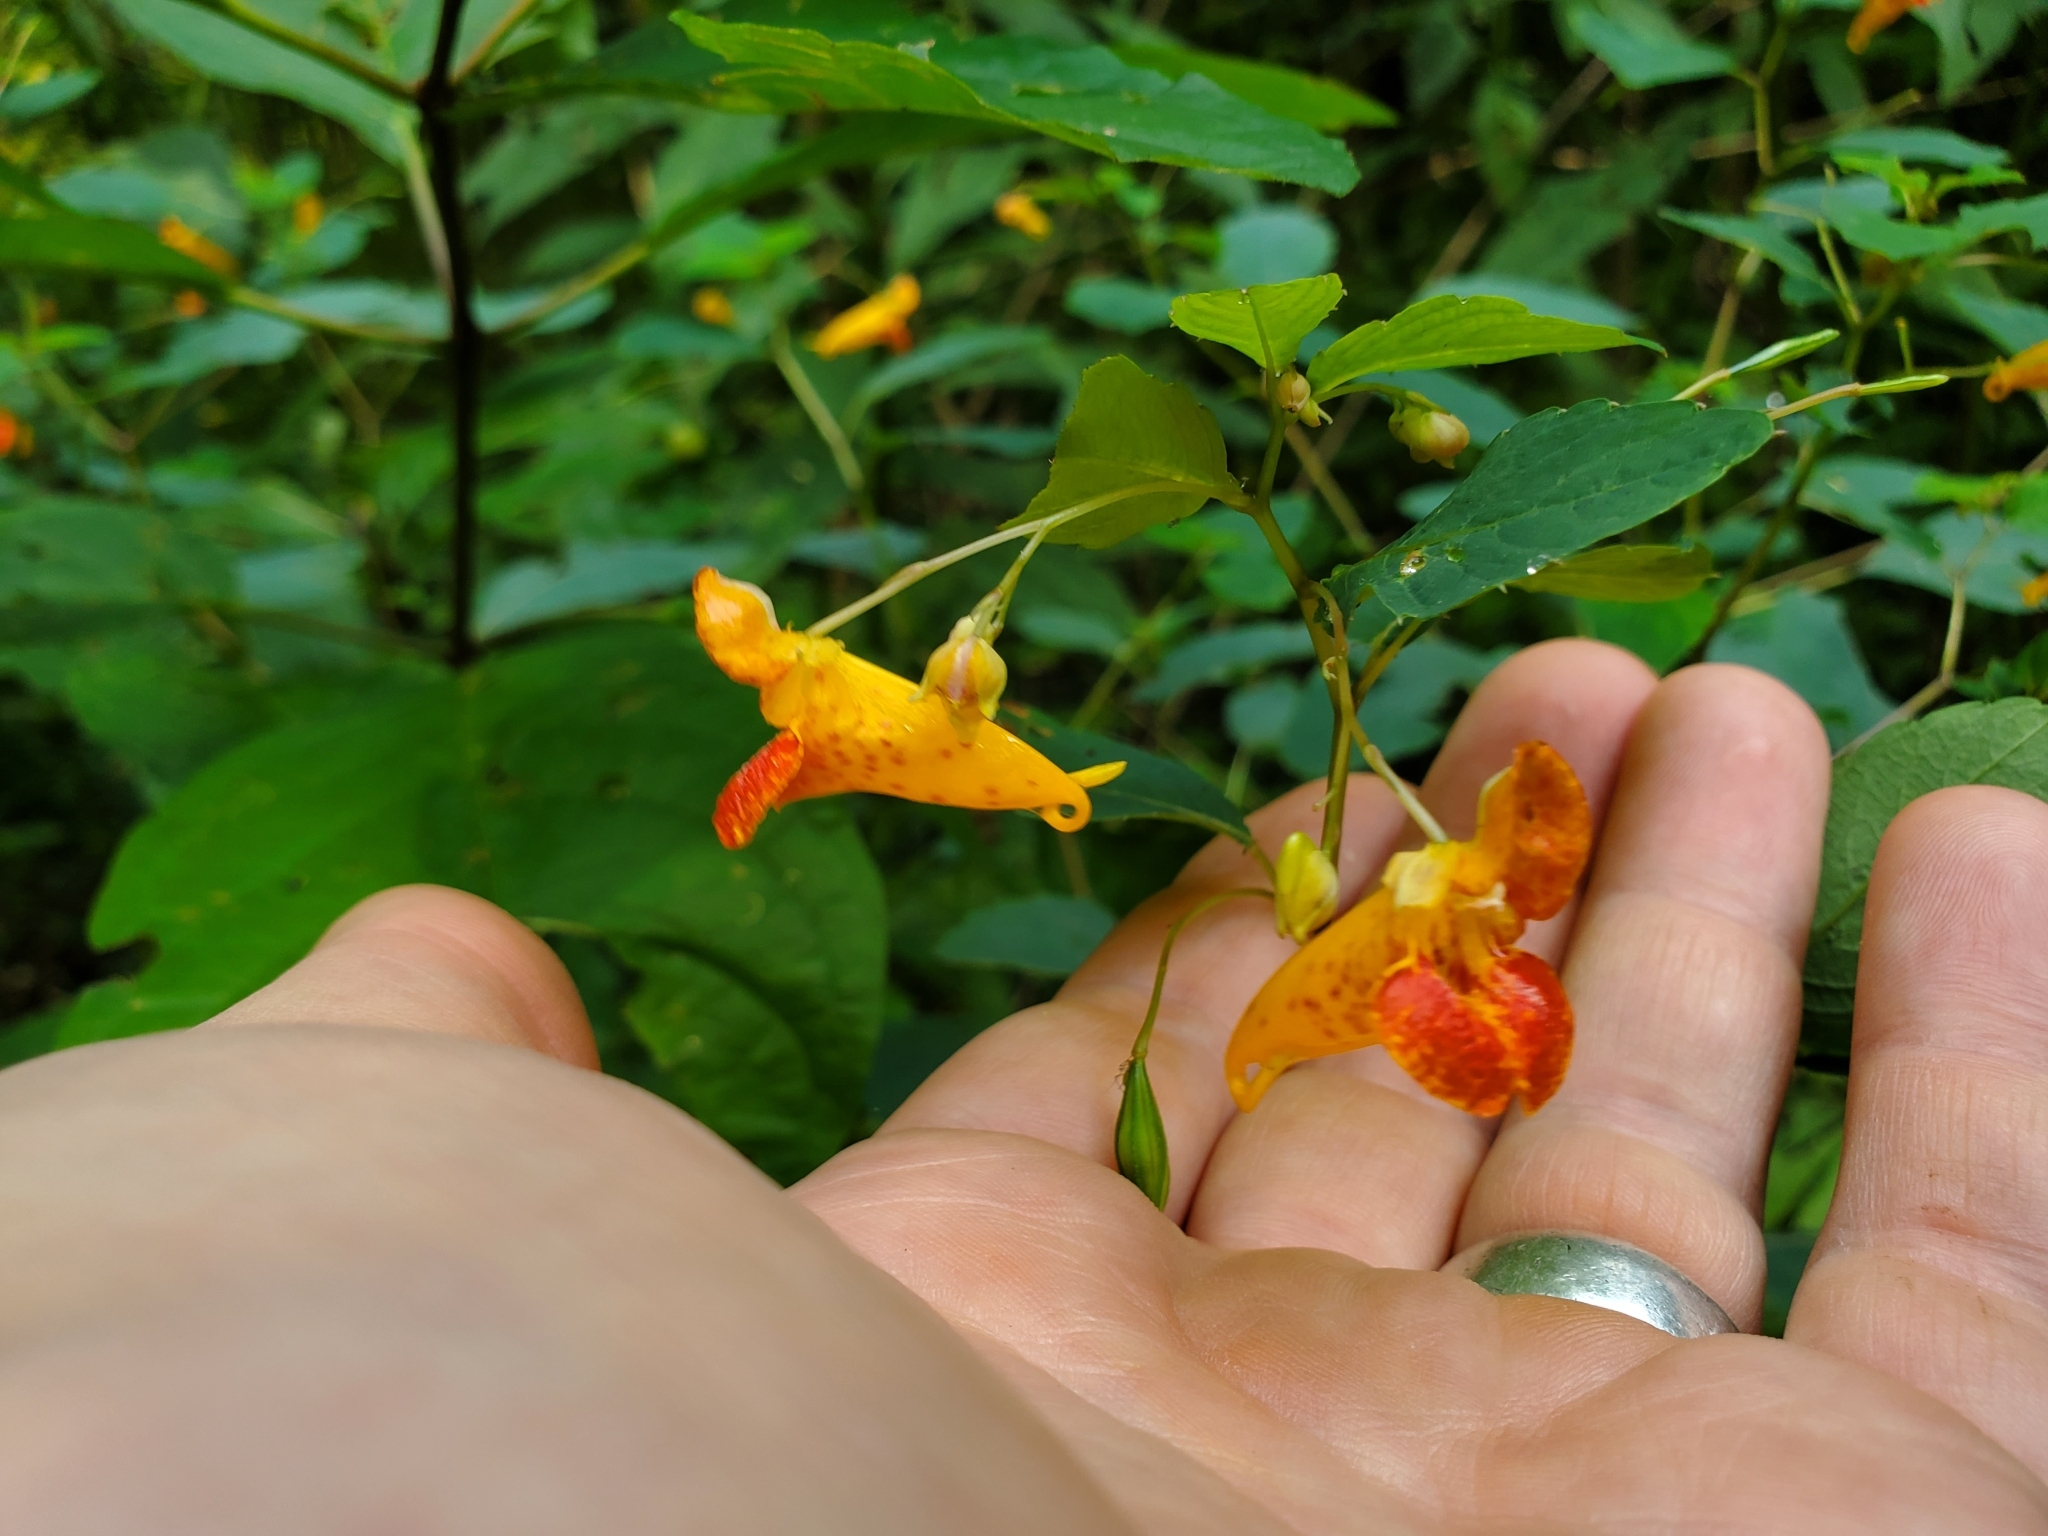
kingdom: Plantae
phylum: Tracheophyta
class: Magnoliopsida
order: Ericales
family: Balsaminaceae
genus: Impatiens
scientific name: Impatiens capensis
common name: Orange balsam
